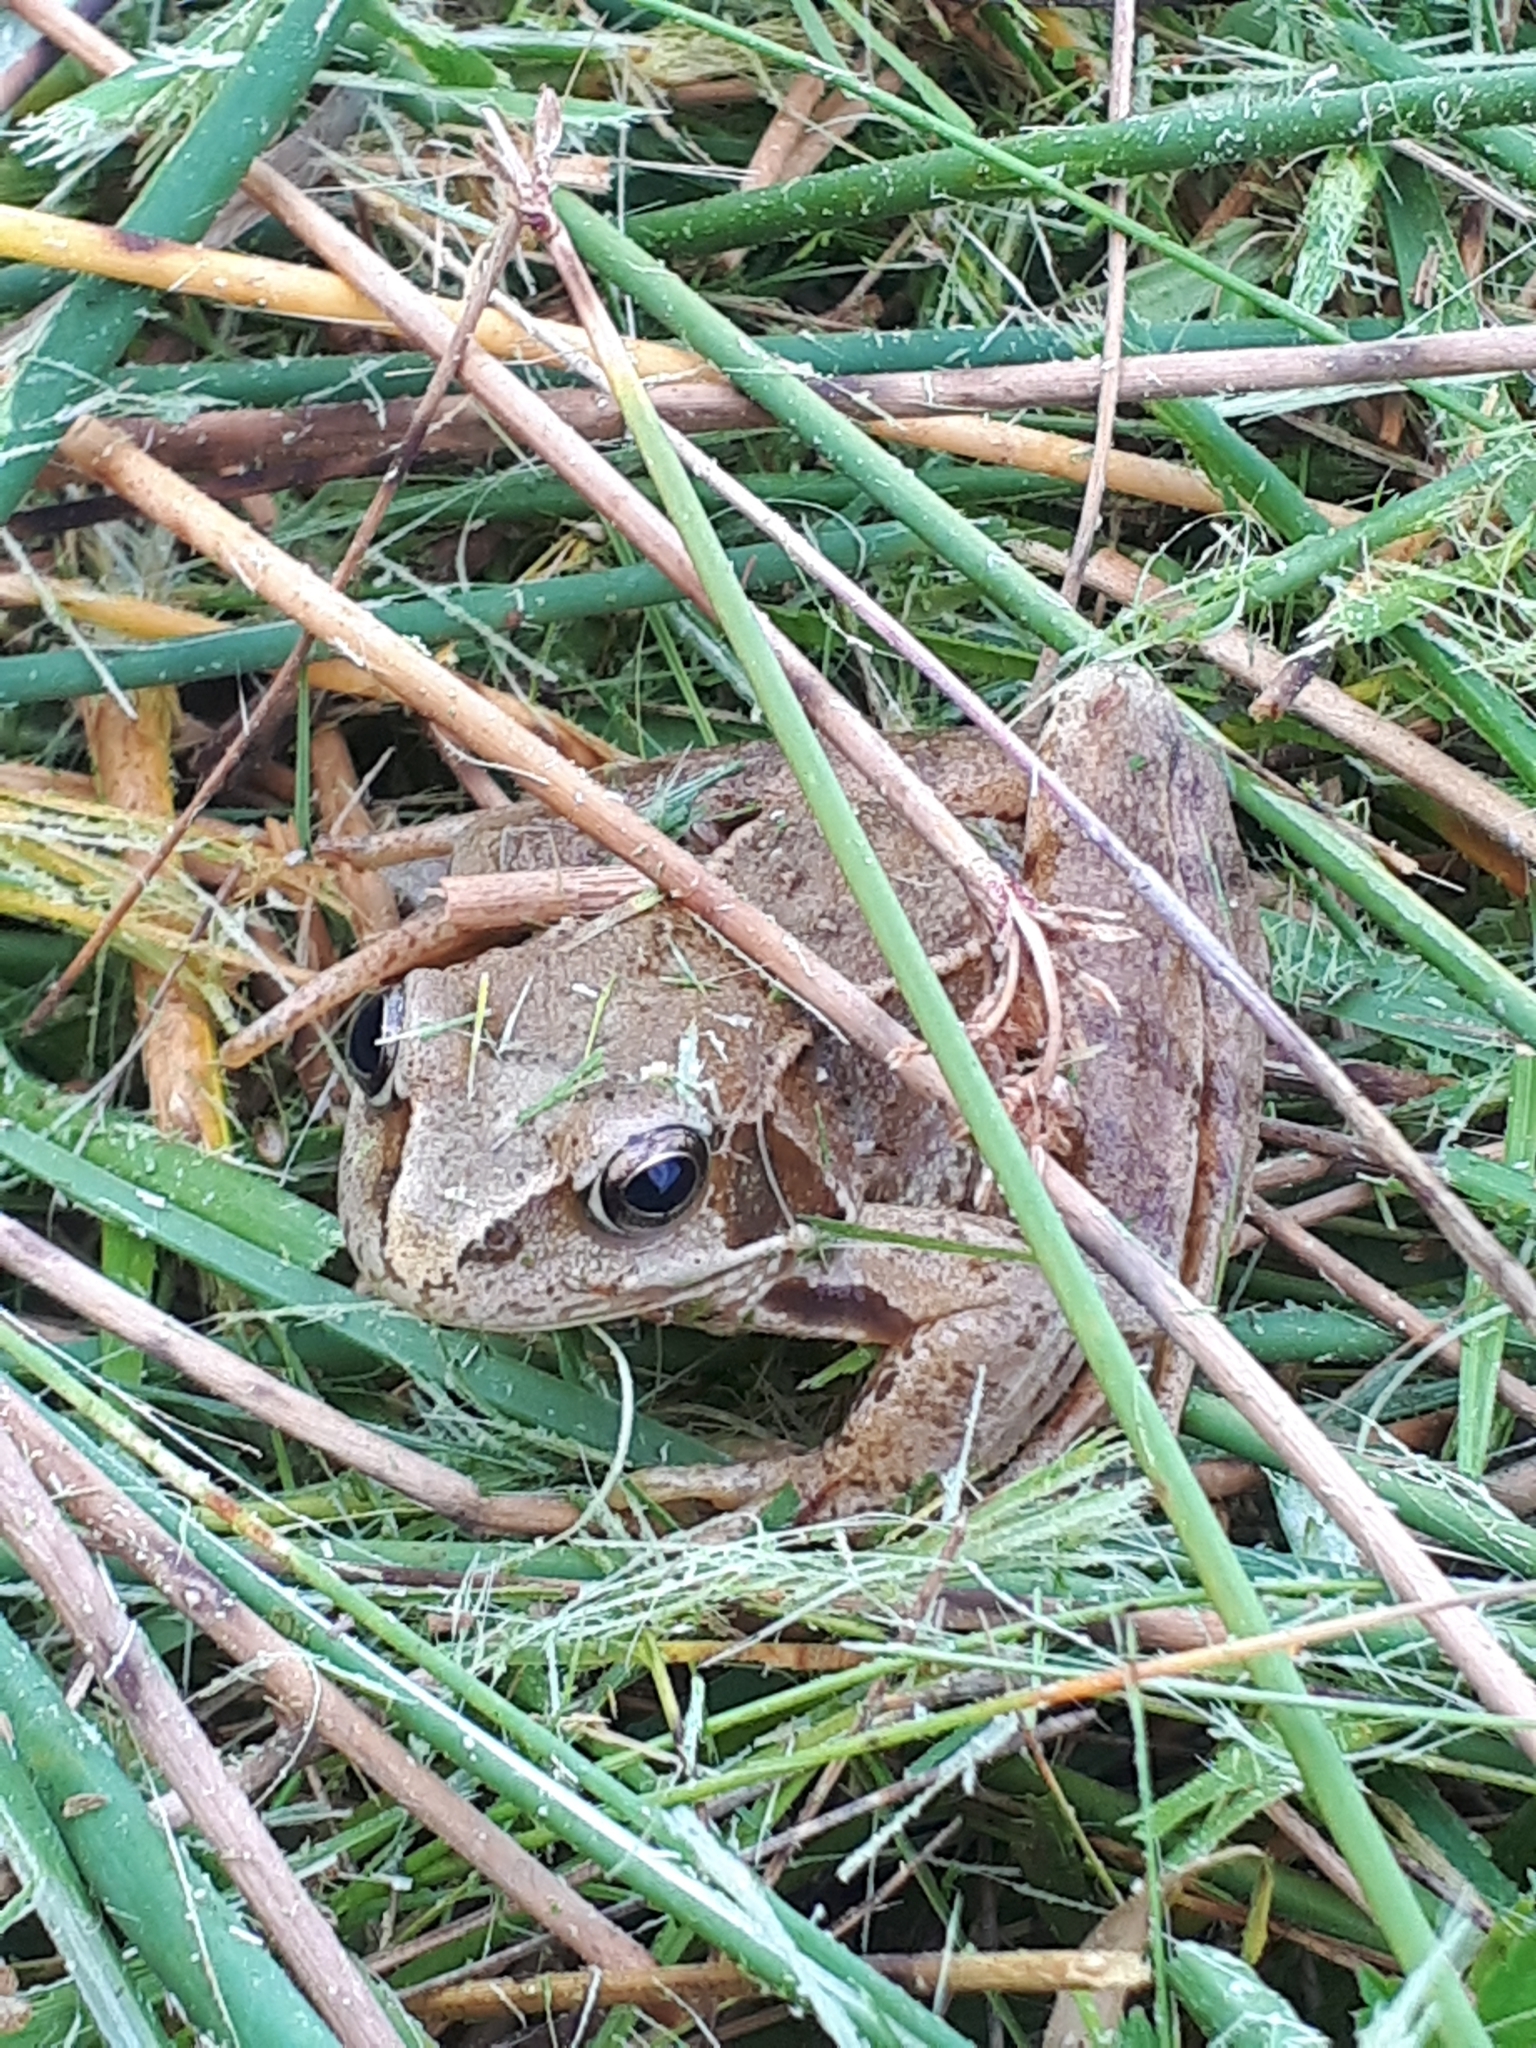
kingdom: Animalia
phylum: Chordata
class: Amphibia
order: Anura
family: Ranidae
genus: Rana
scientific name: Rana temporaria
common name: Common frog
